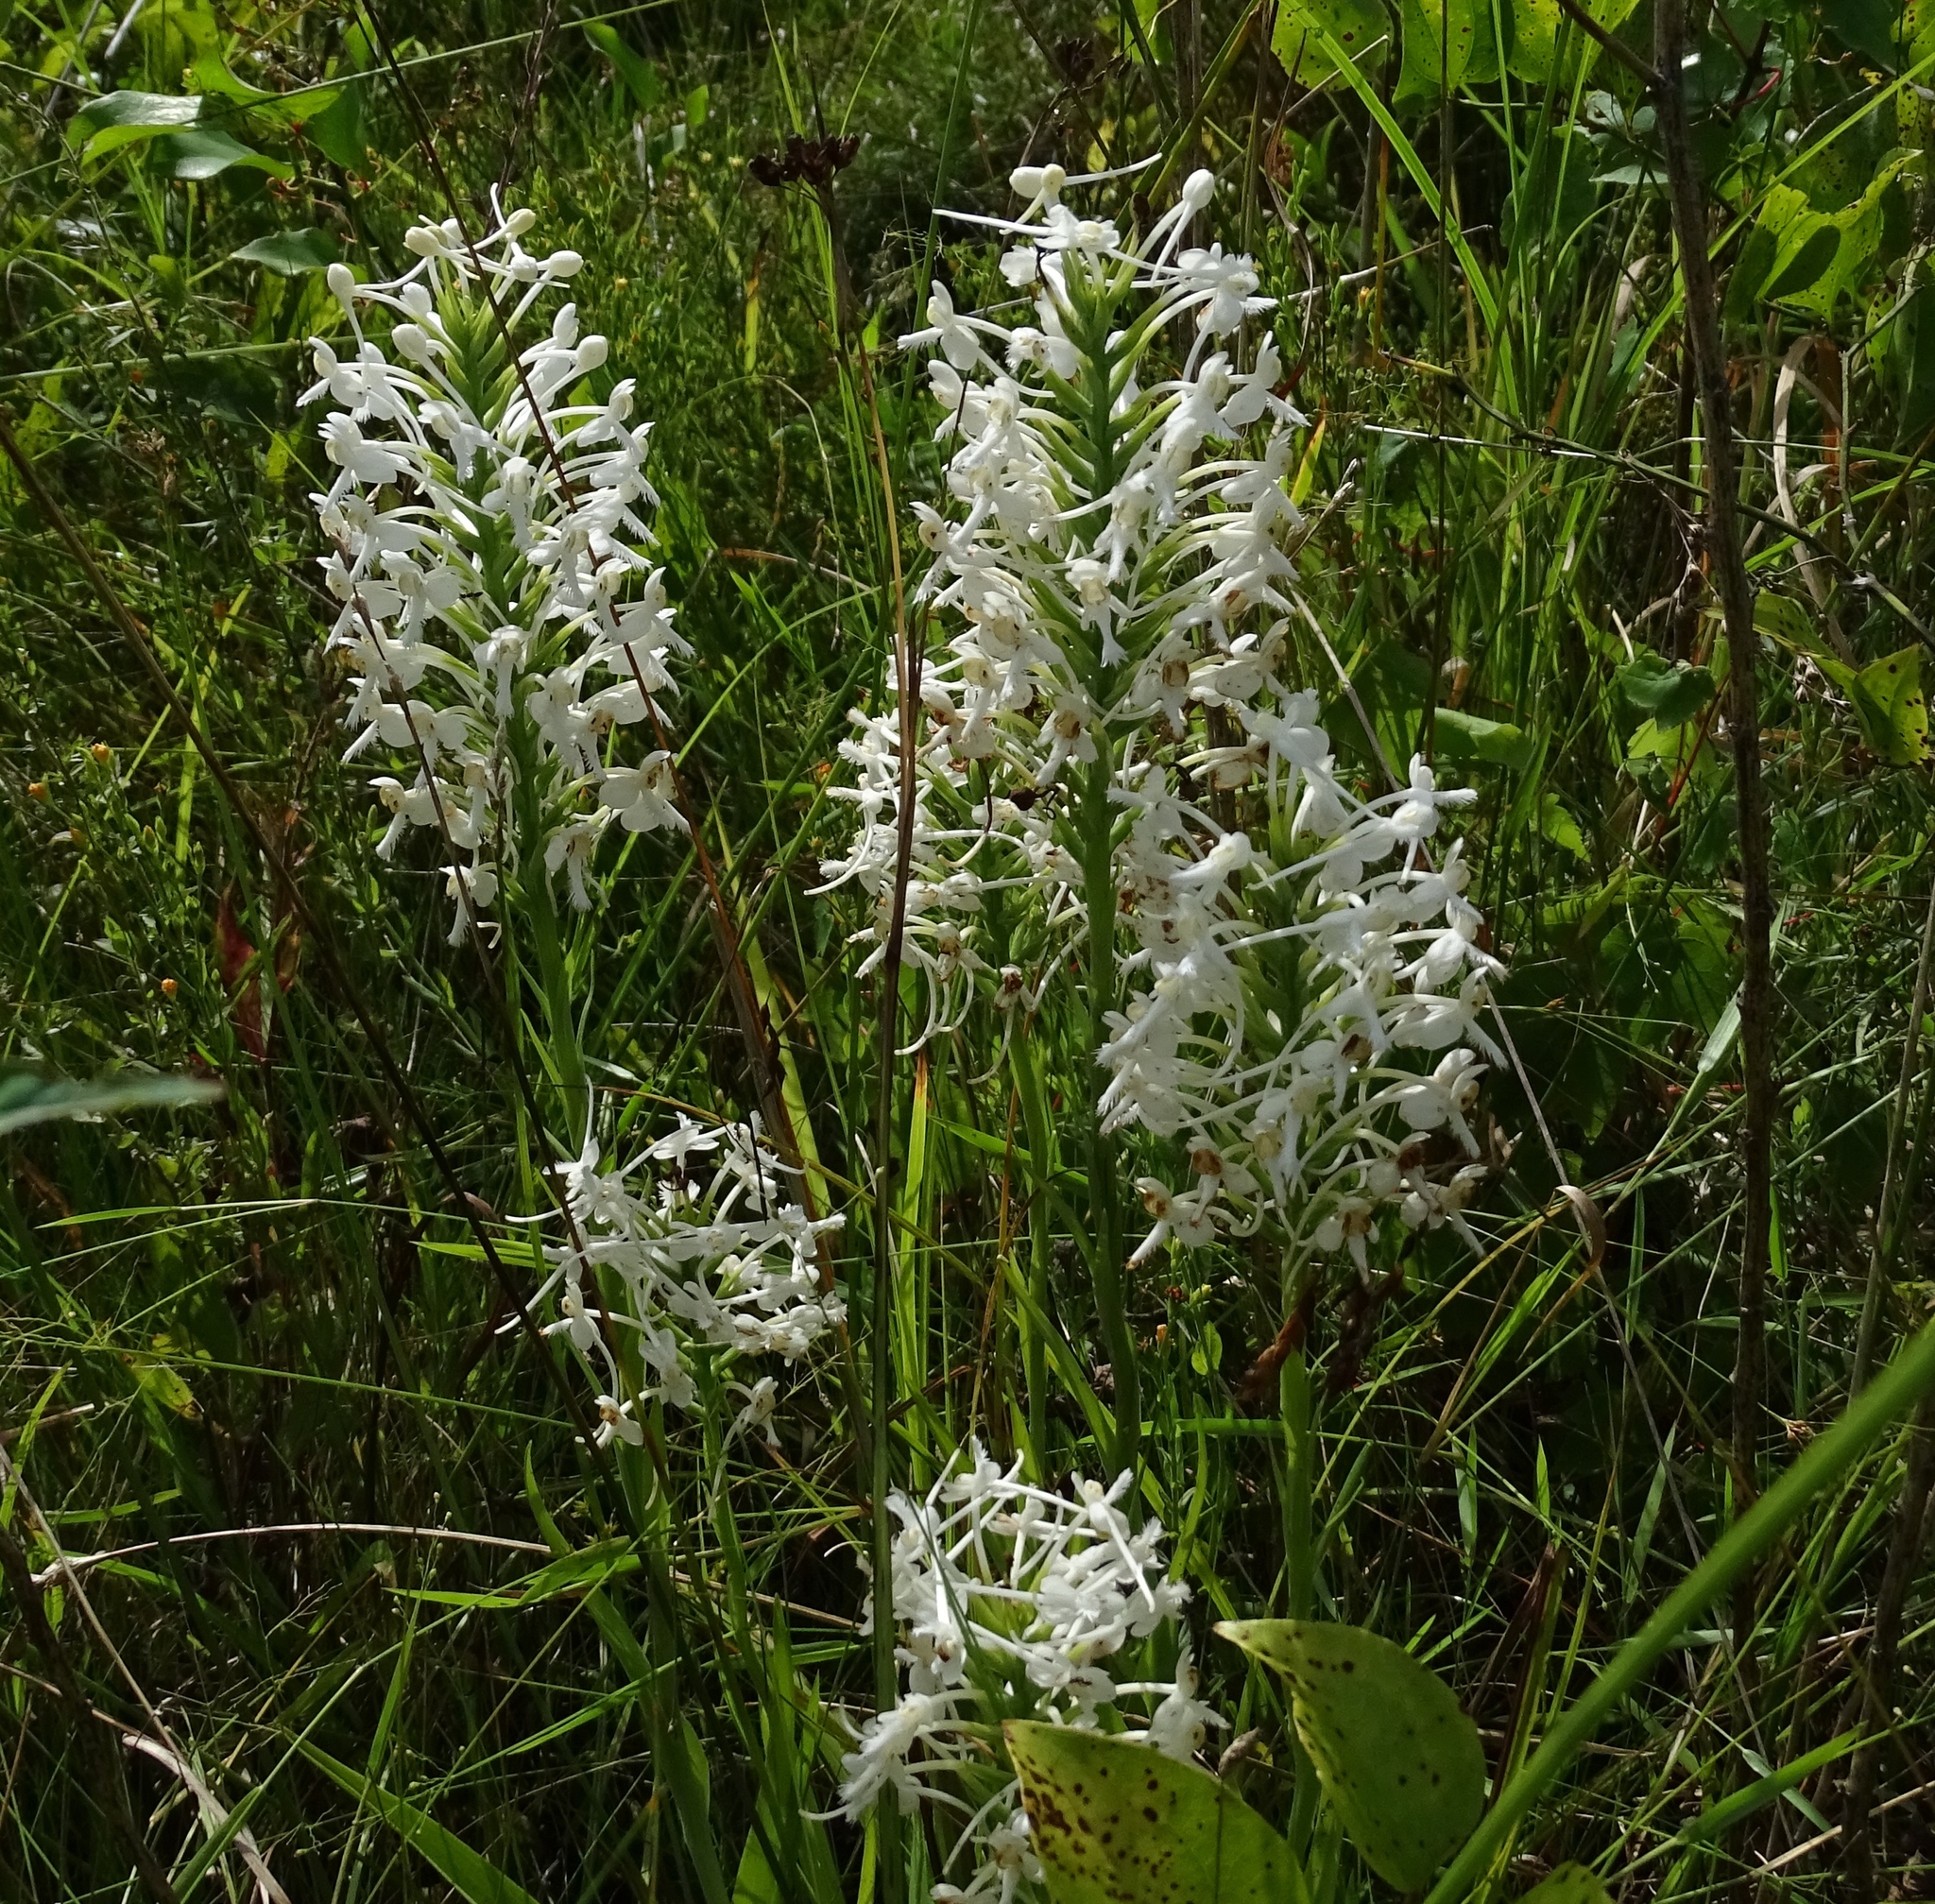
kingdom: Plantae
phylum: Tracheophyta
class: Liliopsida
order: Asparagales
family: Orchidaceae
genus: Platanthera
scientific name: Platanthera blephariglottis
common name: White fringed orchid
